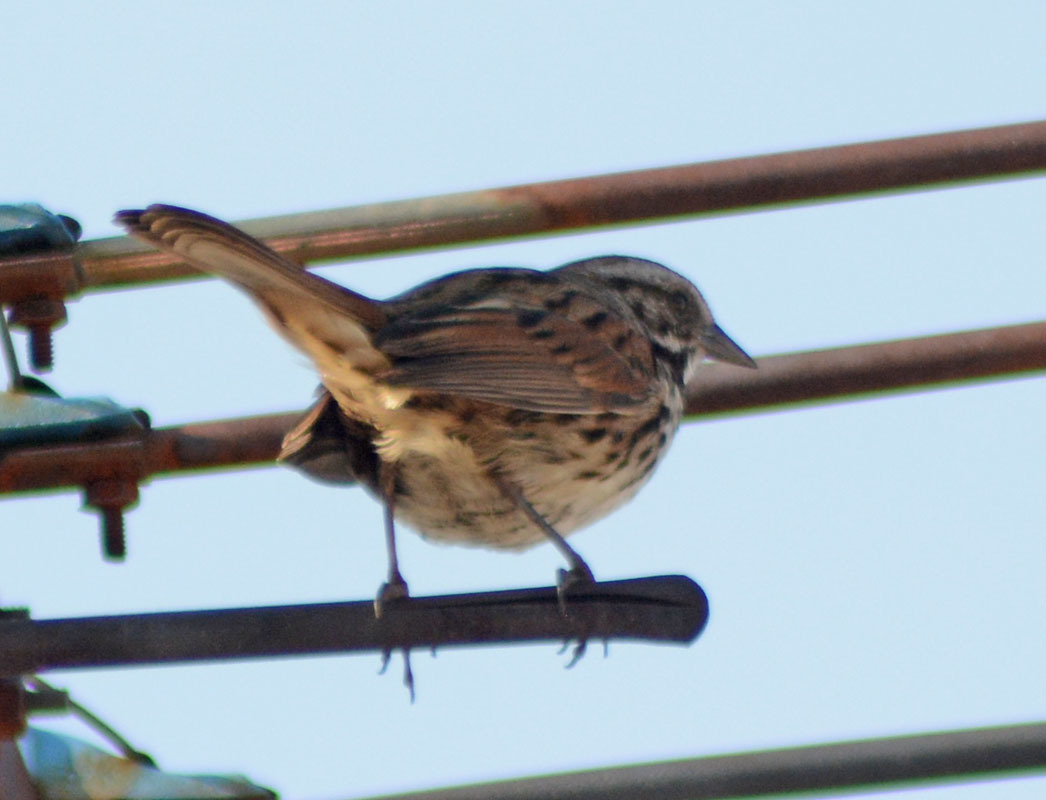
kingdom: Animalia
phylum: Chordata
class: Aves
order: Passeriformes
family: Passerellidae
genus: Melospiza
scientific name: Melospiza melodia
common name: Song sparrow
